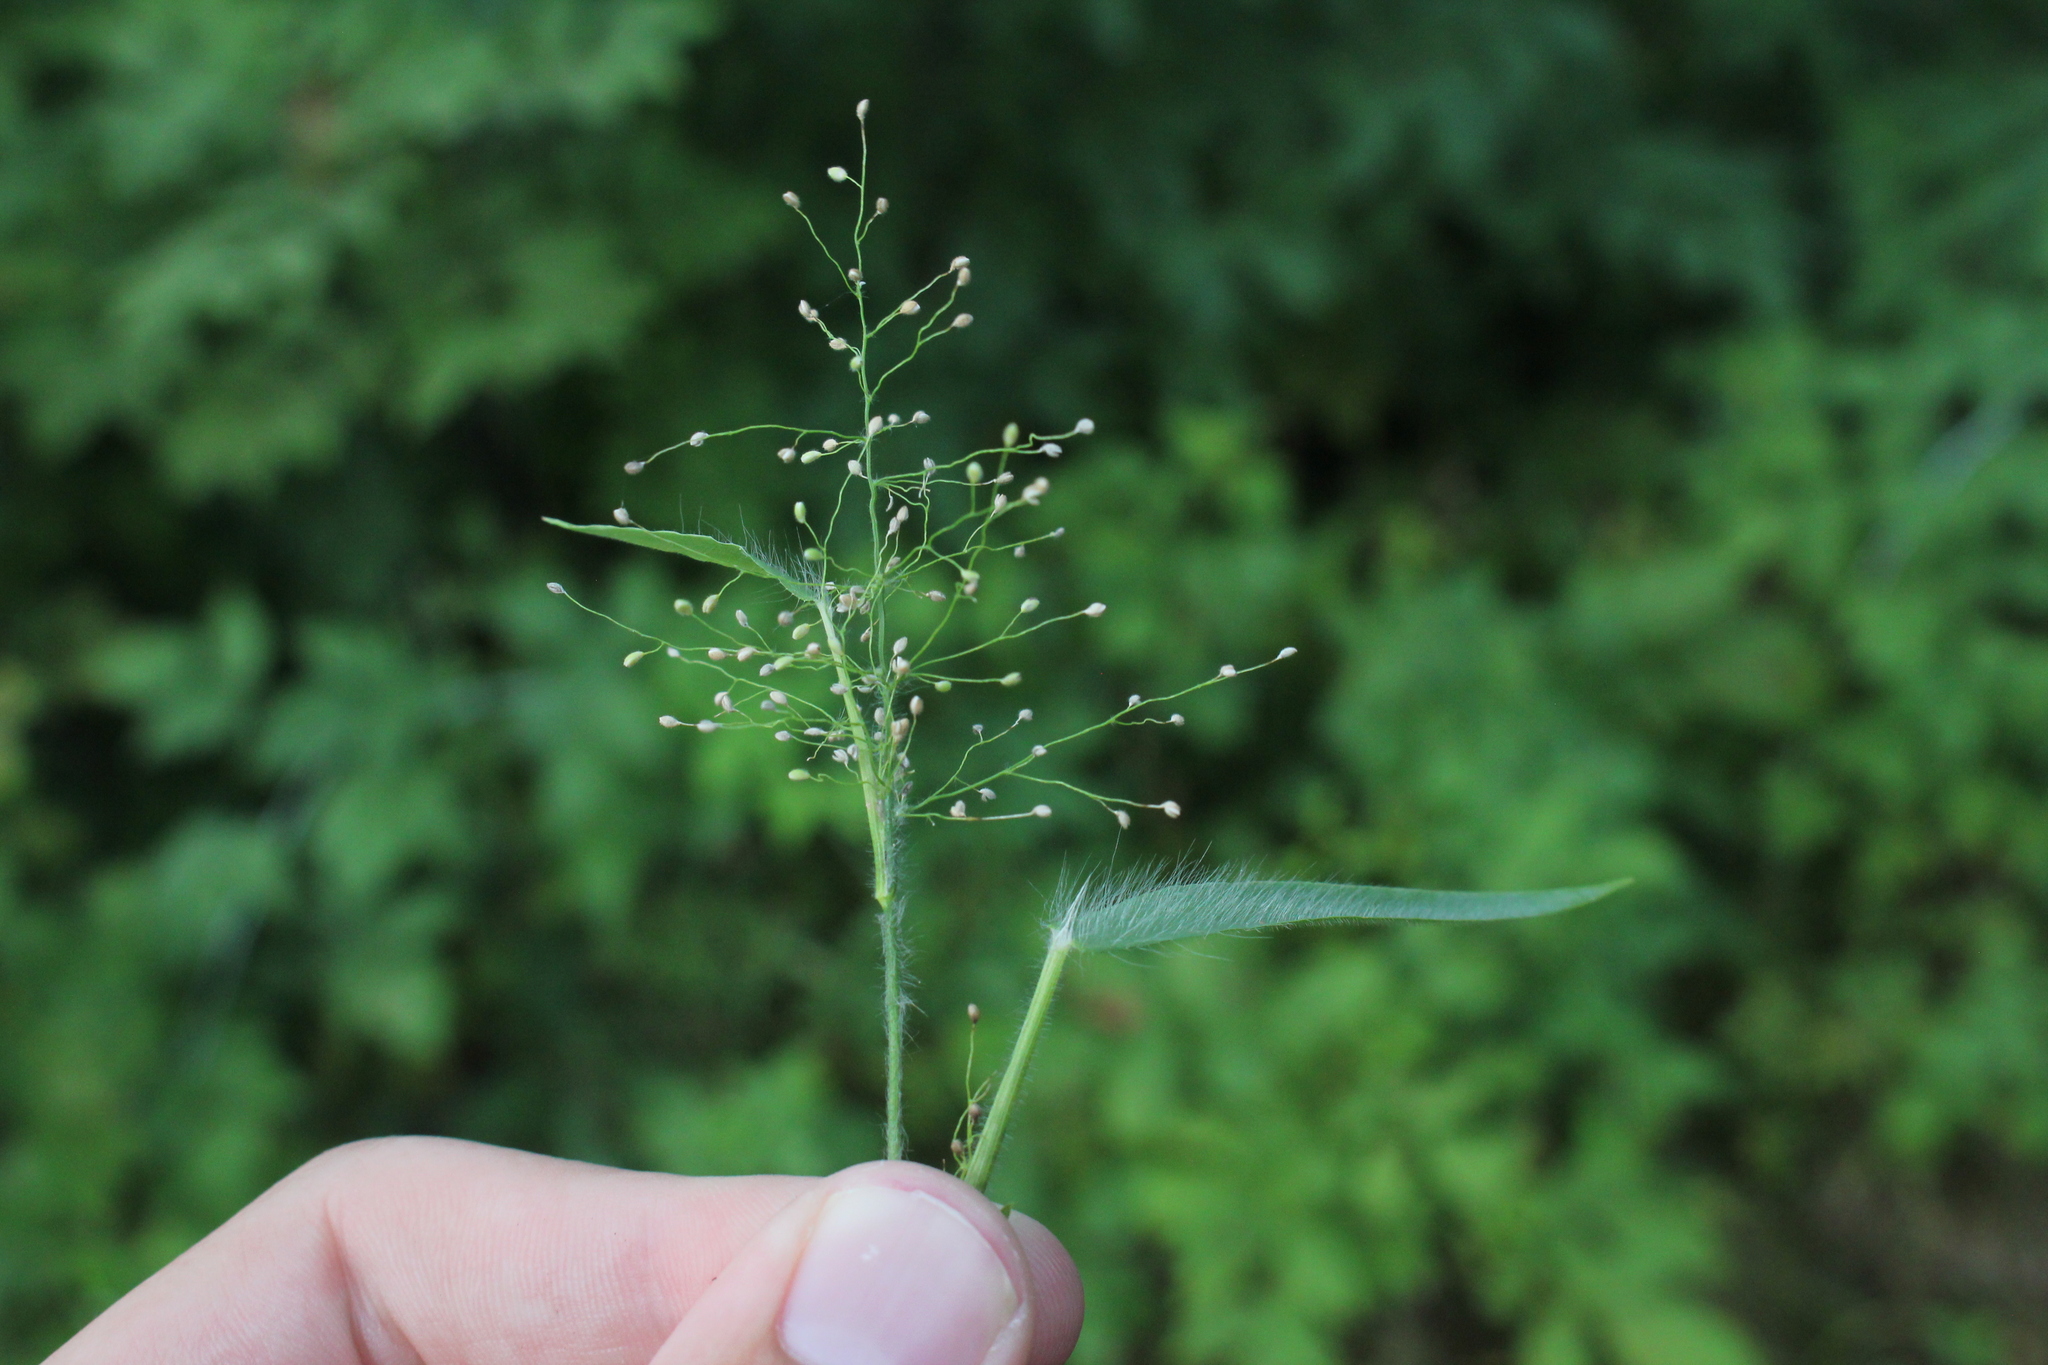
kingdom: Plantae
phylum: Tracheophyta
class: Liliopsida
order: Poales
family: Poaceae
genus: Dichanthelium
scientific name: Dichanthelium implicatum
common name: Slender-stemmed panicgrass
